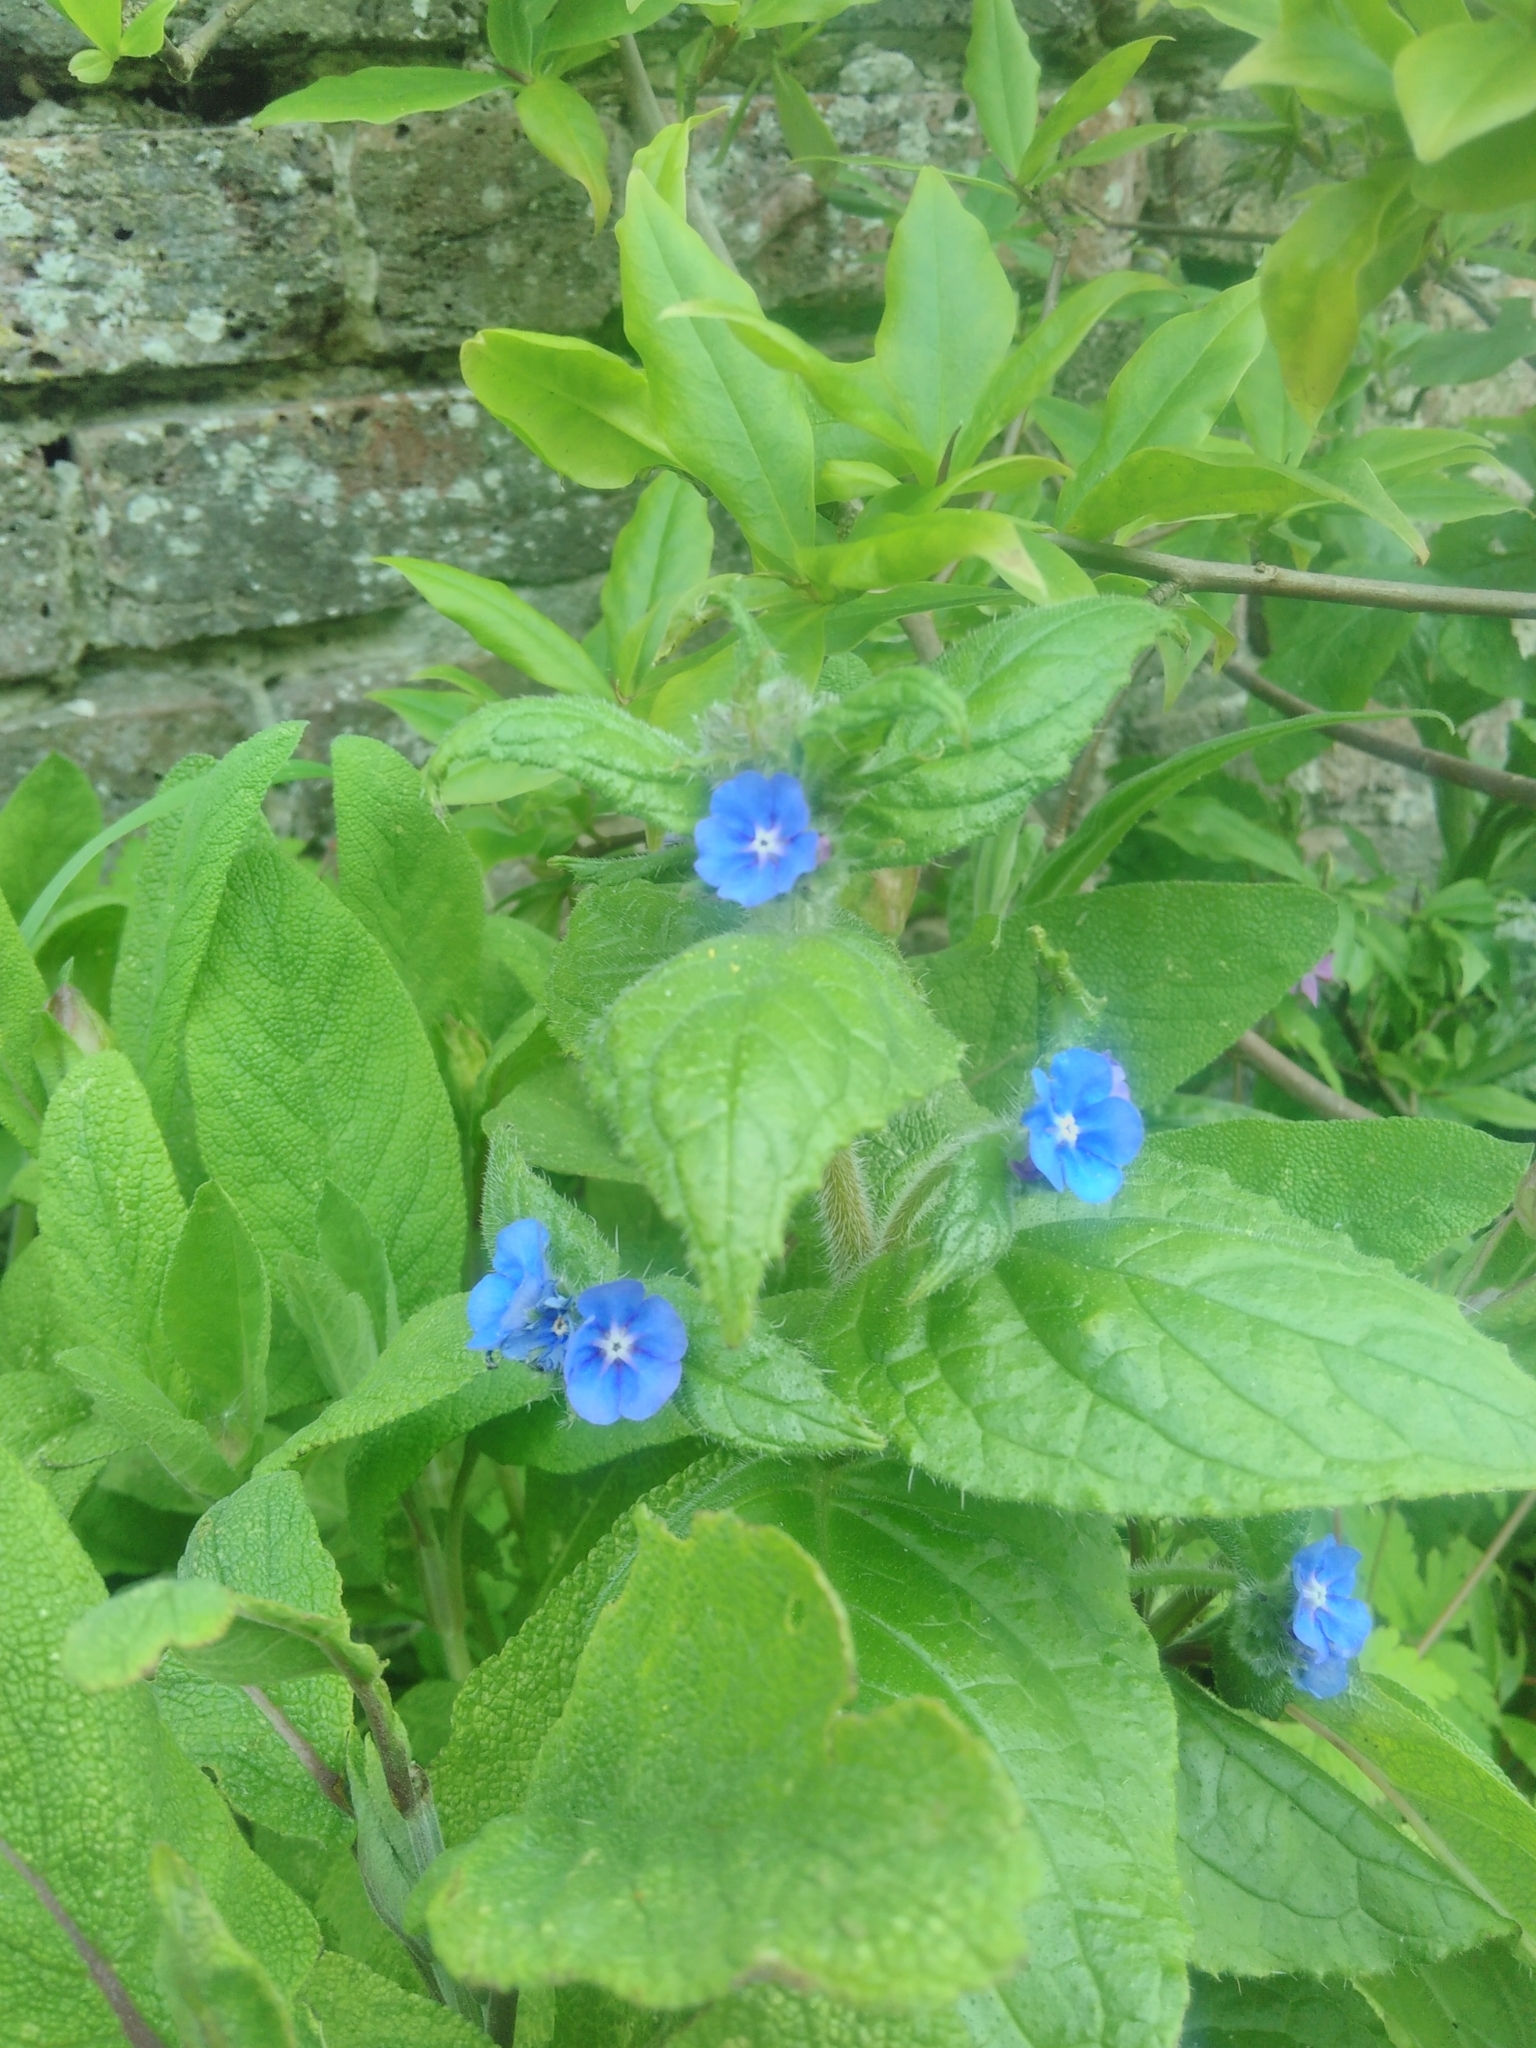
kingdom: Plantae
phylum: Tracheophyta
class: Magnoliopsida
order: Boraginales
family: Boraginaceae
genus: Pentaglottis
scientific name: Pentaglottis sempervirens
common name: Green alkanet
